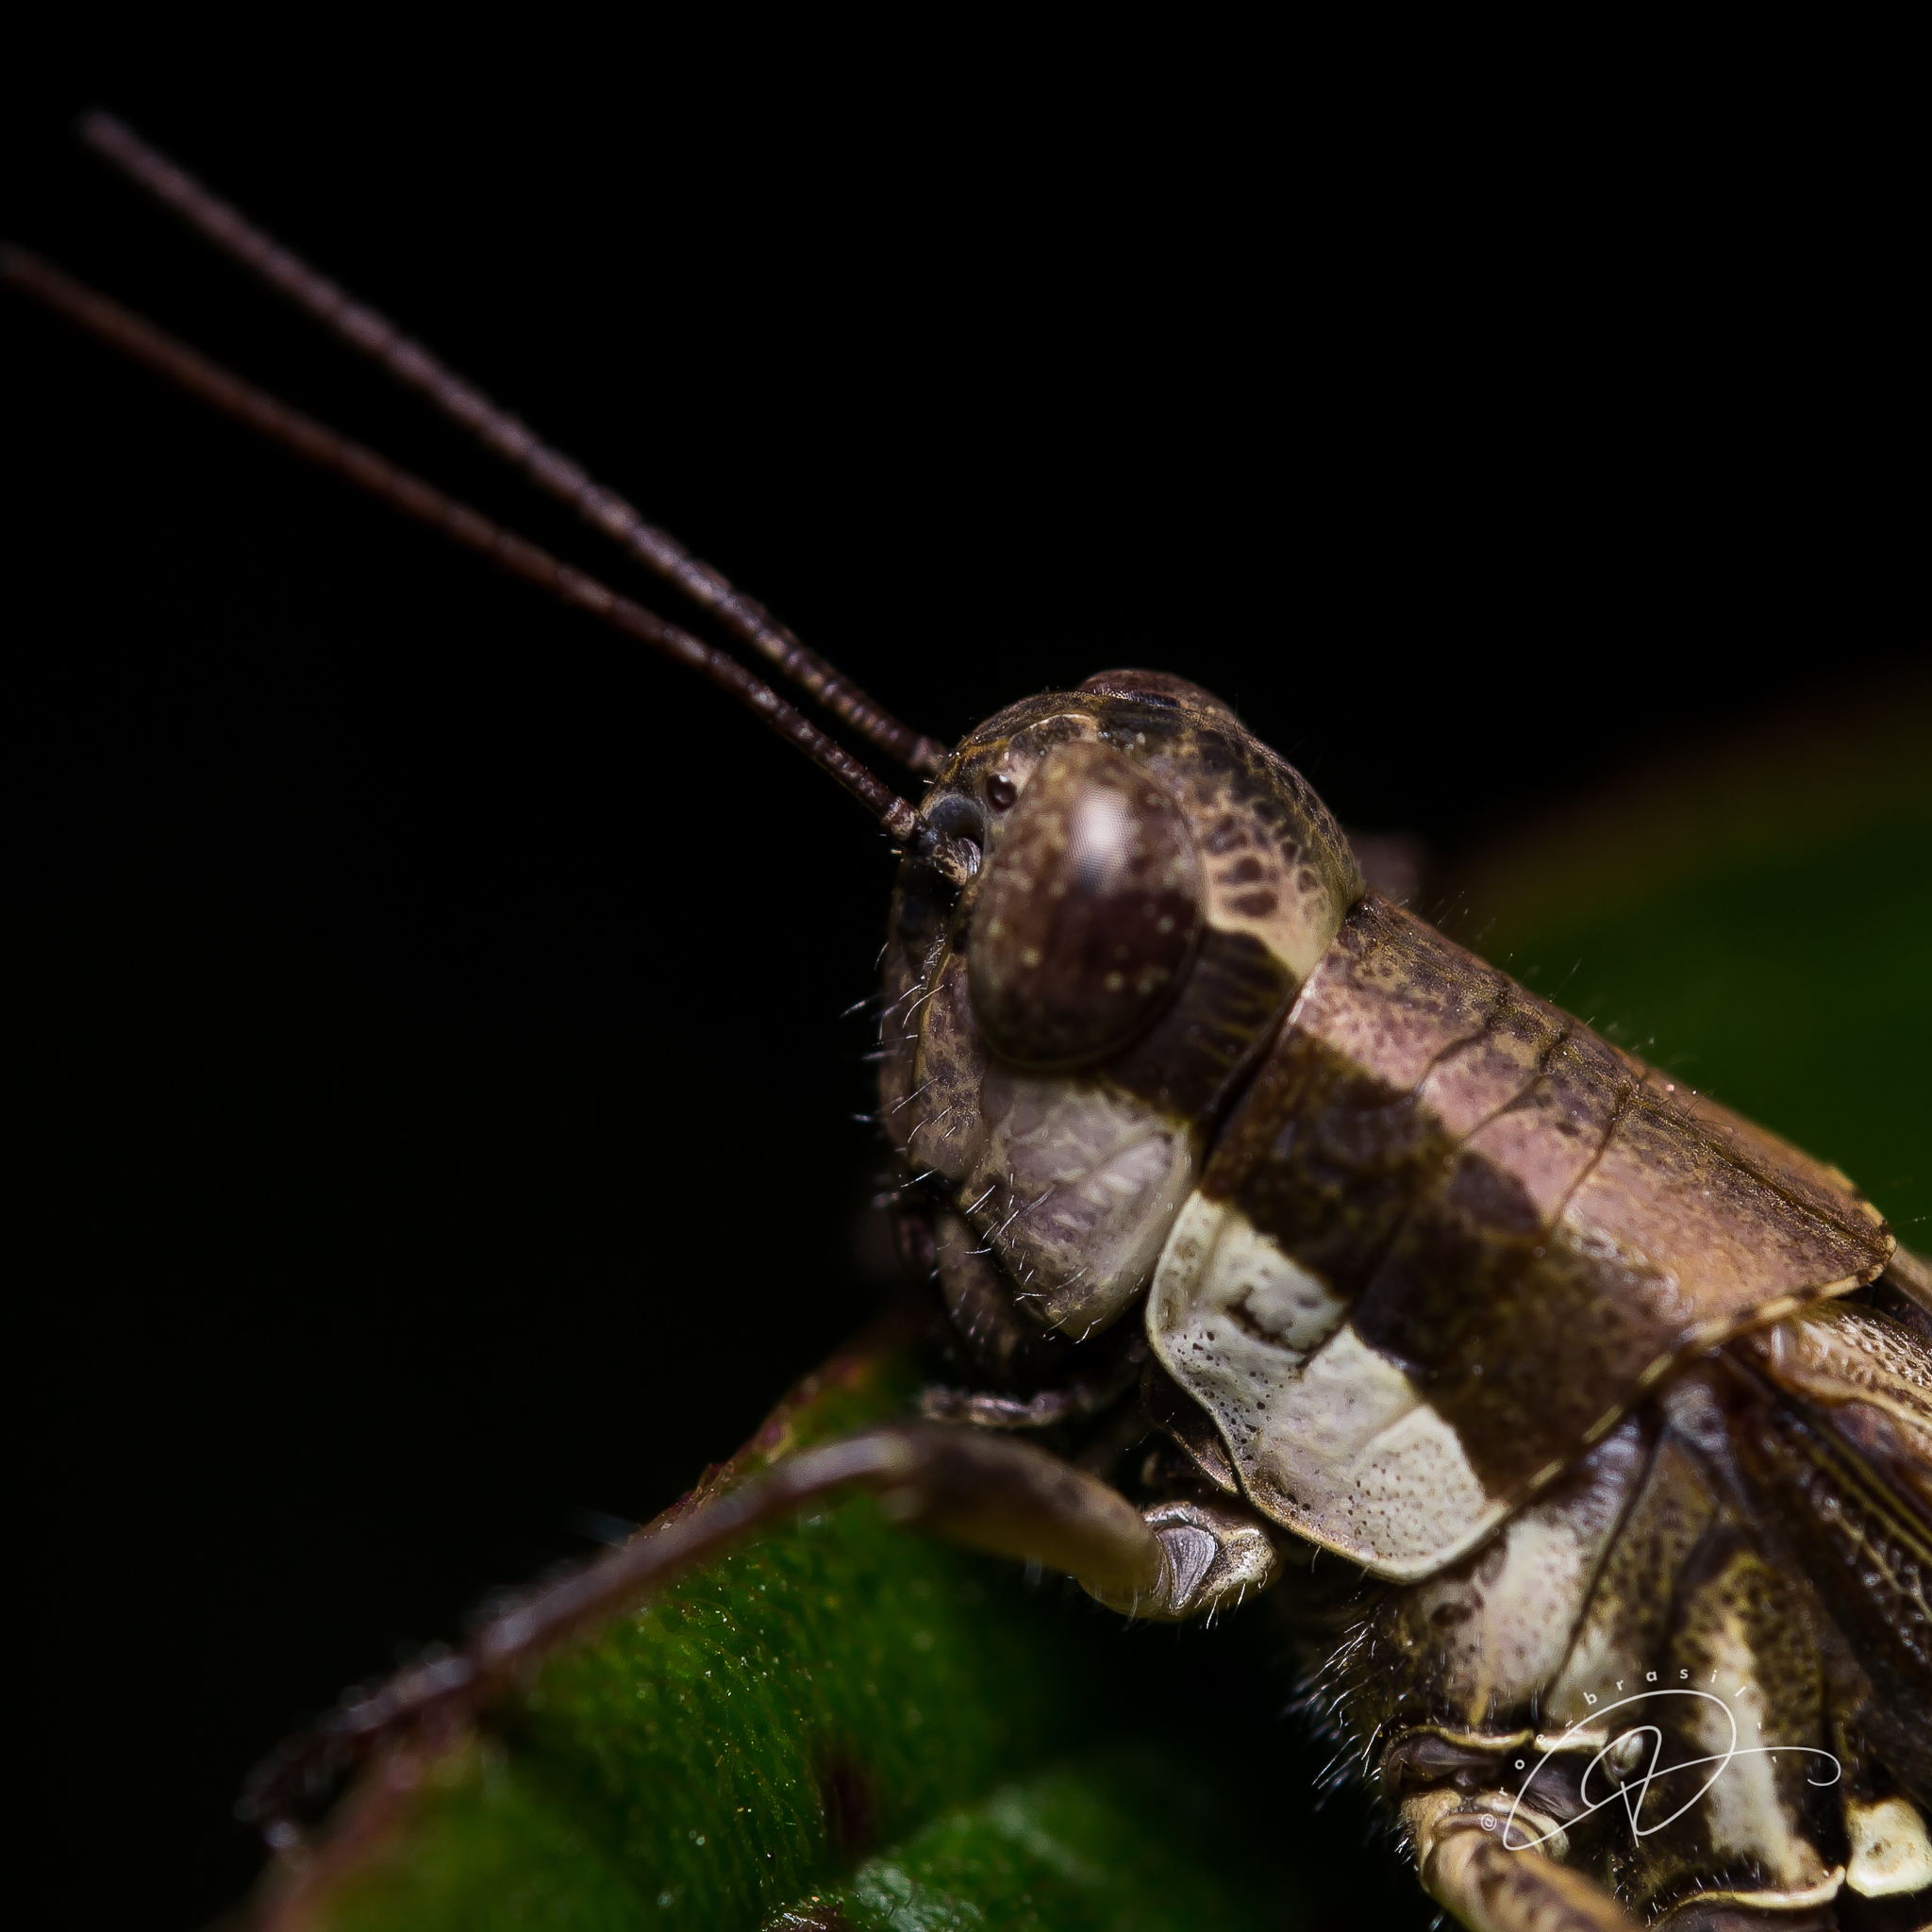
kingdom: Animalia
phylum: Arthropoda
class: Insecta
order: Orthoptera
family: Acrididae
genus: Ronderosia
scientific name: Ronderosia bergii
